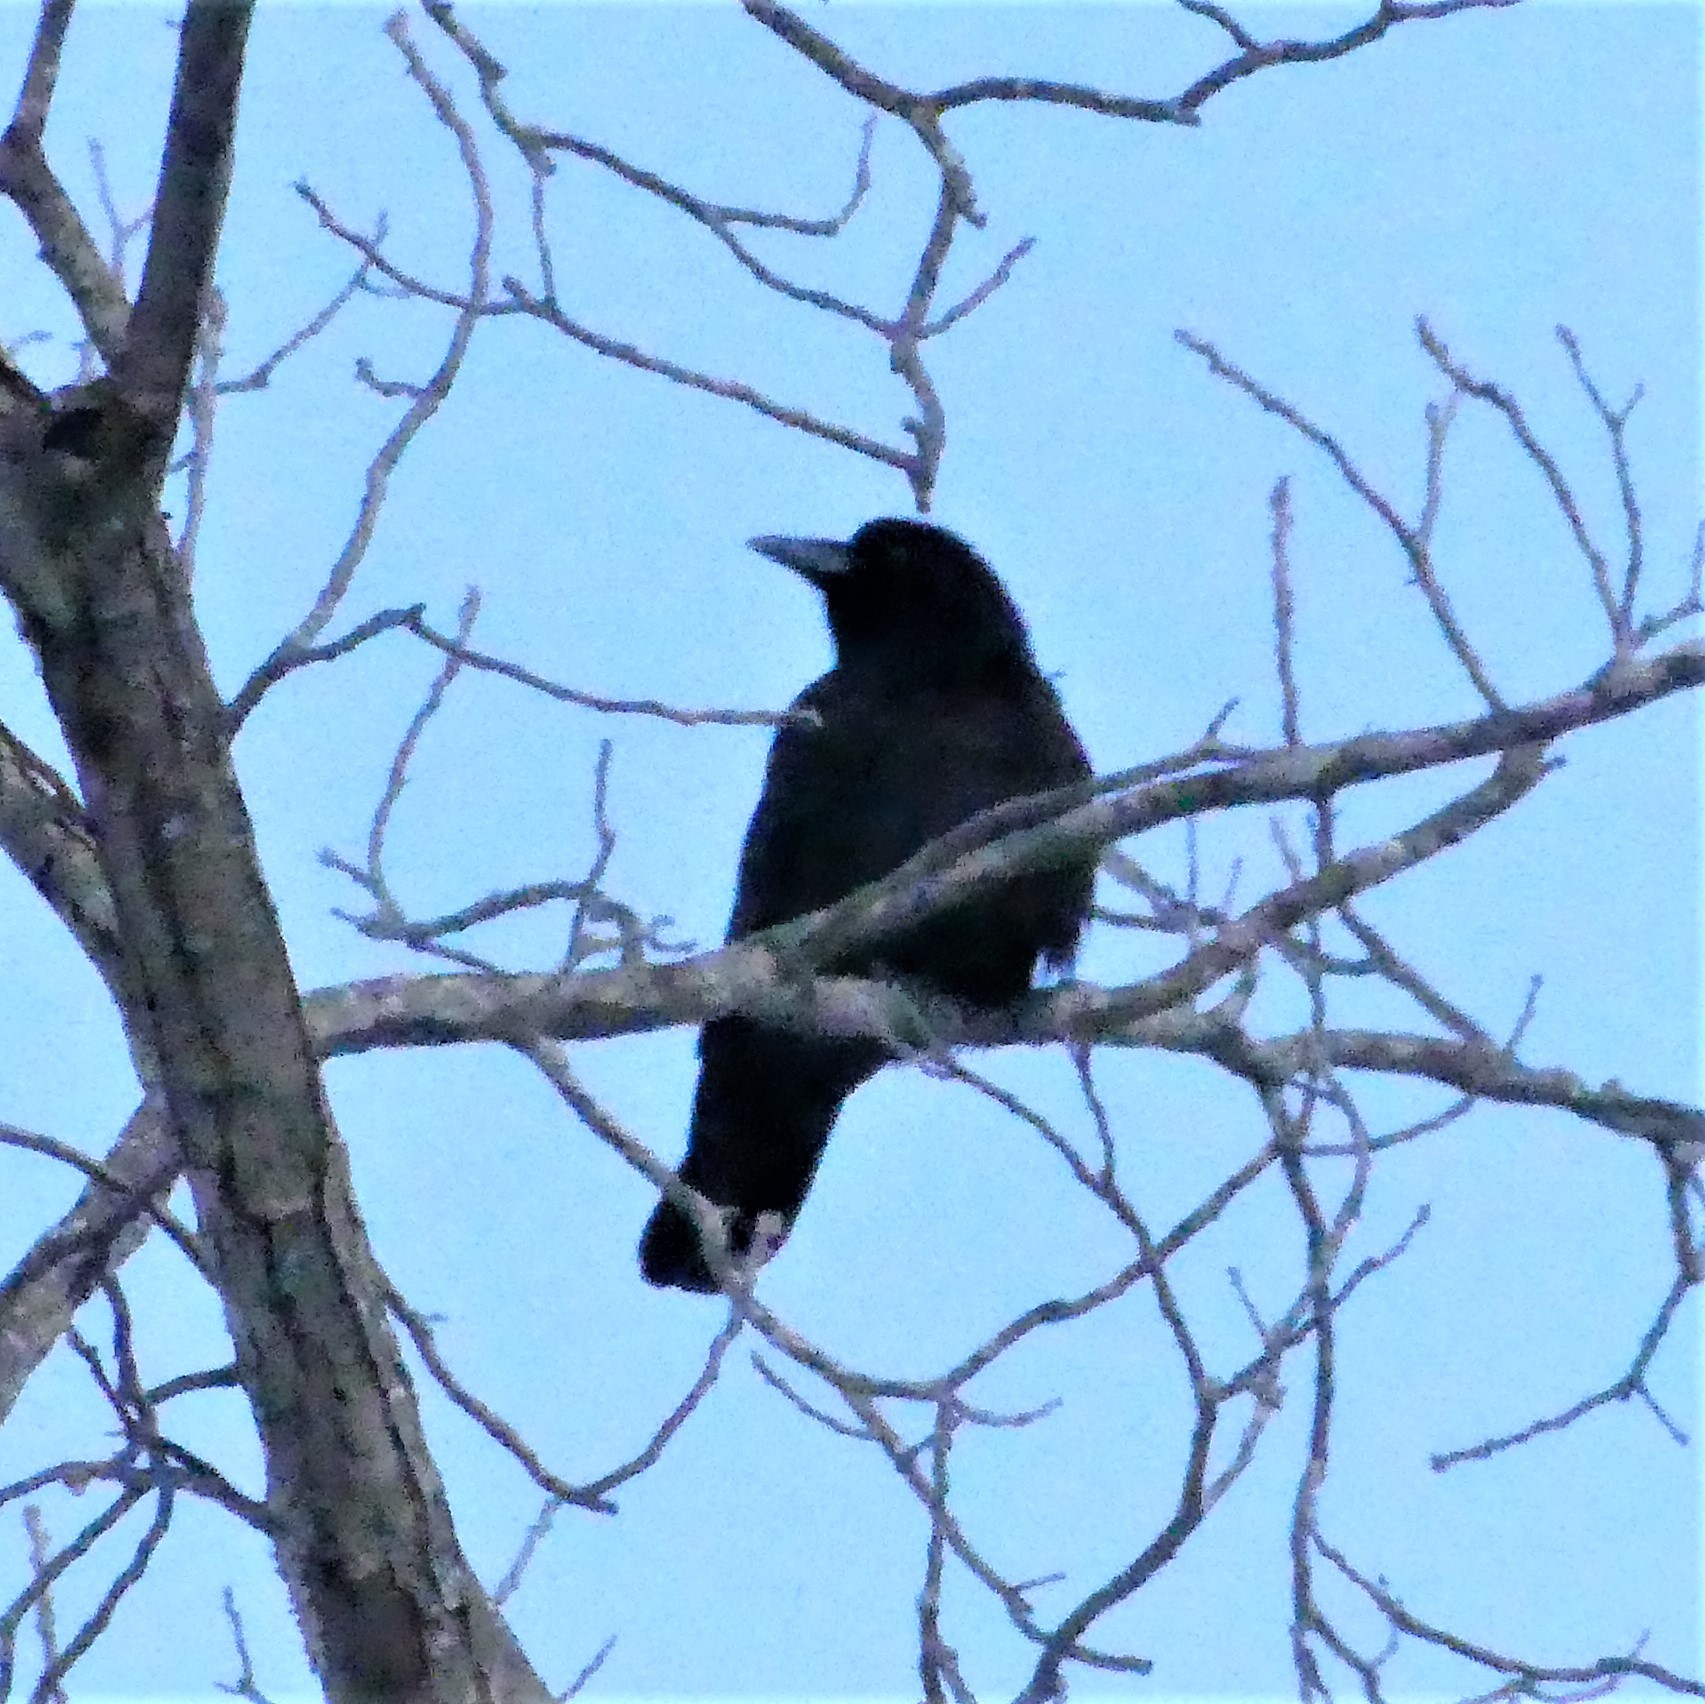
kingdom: Animalia
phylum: Chordata
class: Aves
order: Passeriformes
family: Corvidae
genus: Corvus
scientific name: Corvus brachyrhynchos
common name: American crow
